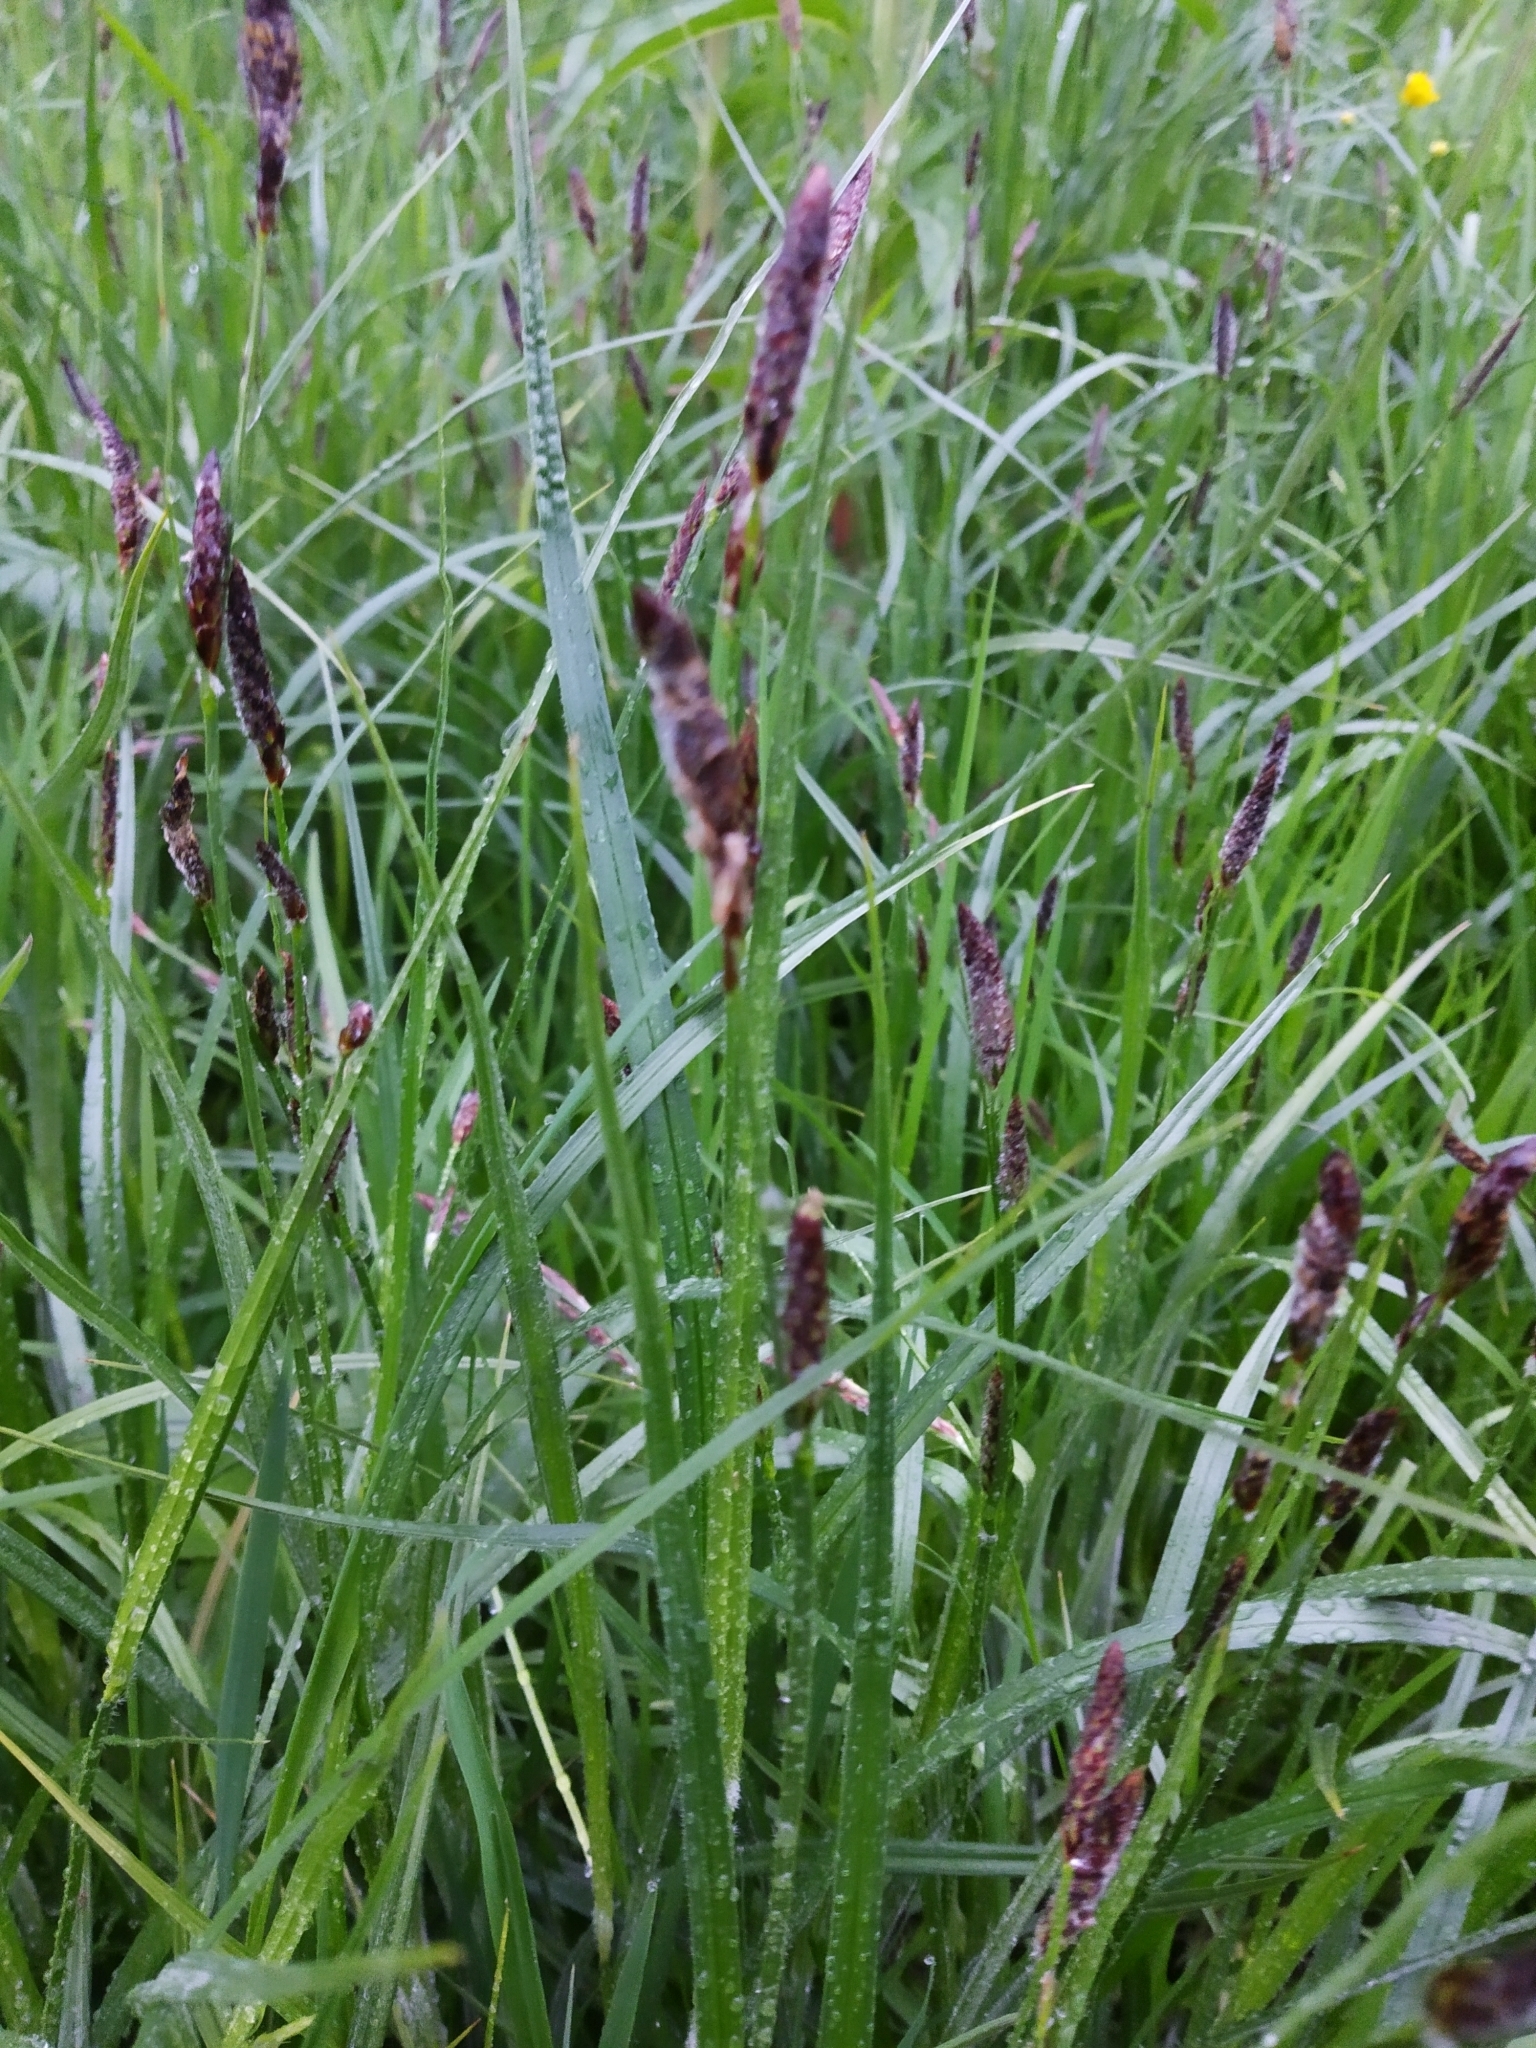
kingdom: Plantae
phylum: Tracheophyta
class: Liliopsida
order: Poales
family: Cyperaceae
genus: Carex
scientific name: Carex hirta
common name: Hairy sedge
